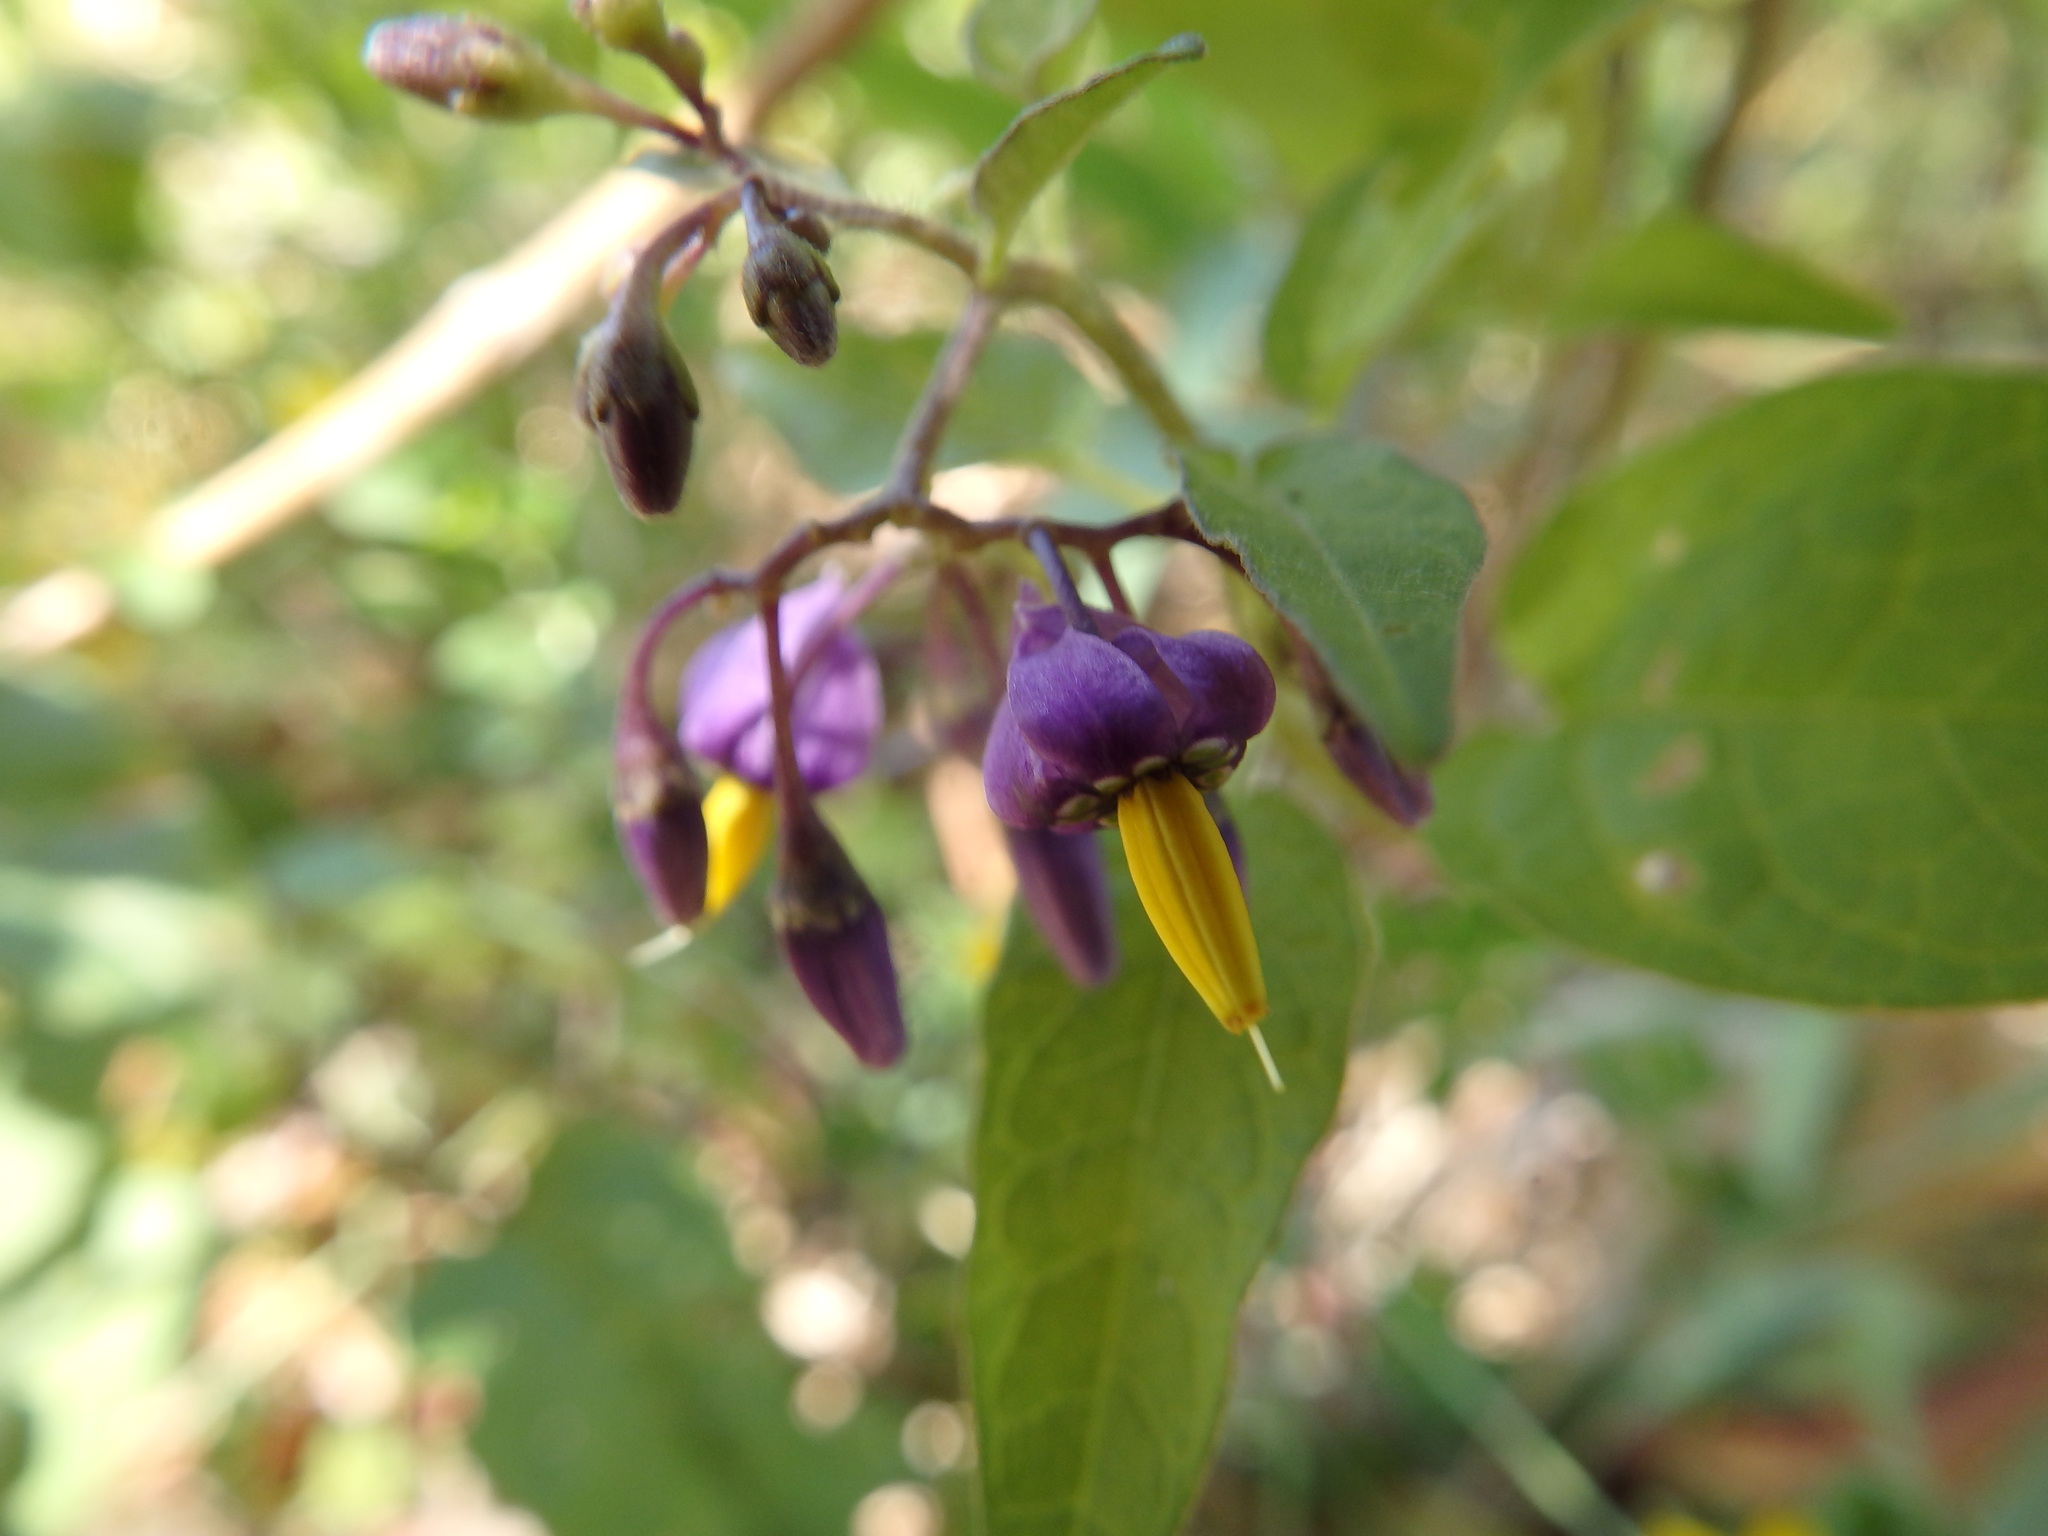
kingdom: Plantae
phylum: Tracheophyta
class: Magnoliopsida
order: Solanales
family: Solanaceae
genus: Solanum
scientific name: Solanum dulcamara
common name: Climbing nightshade
